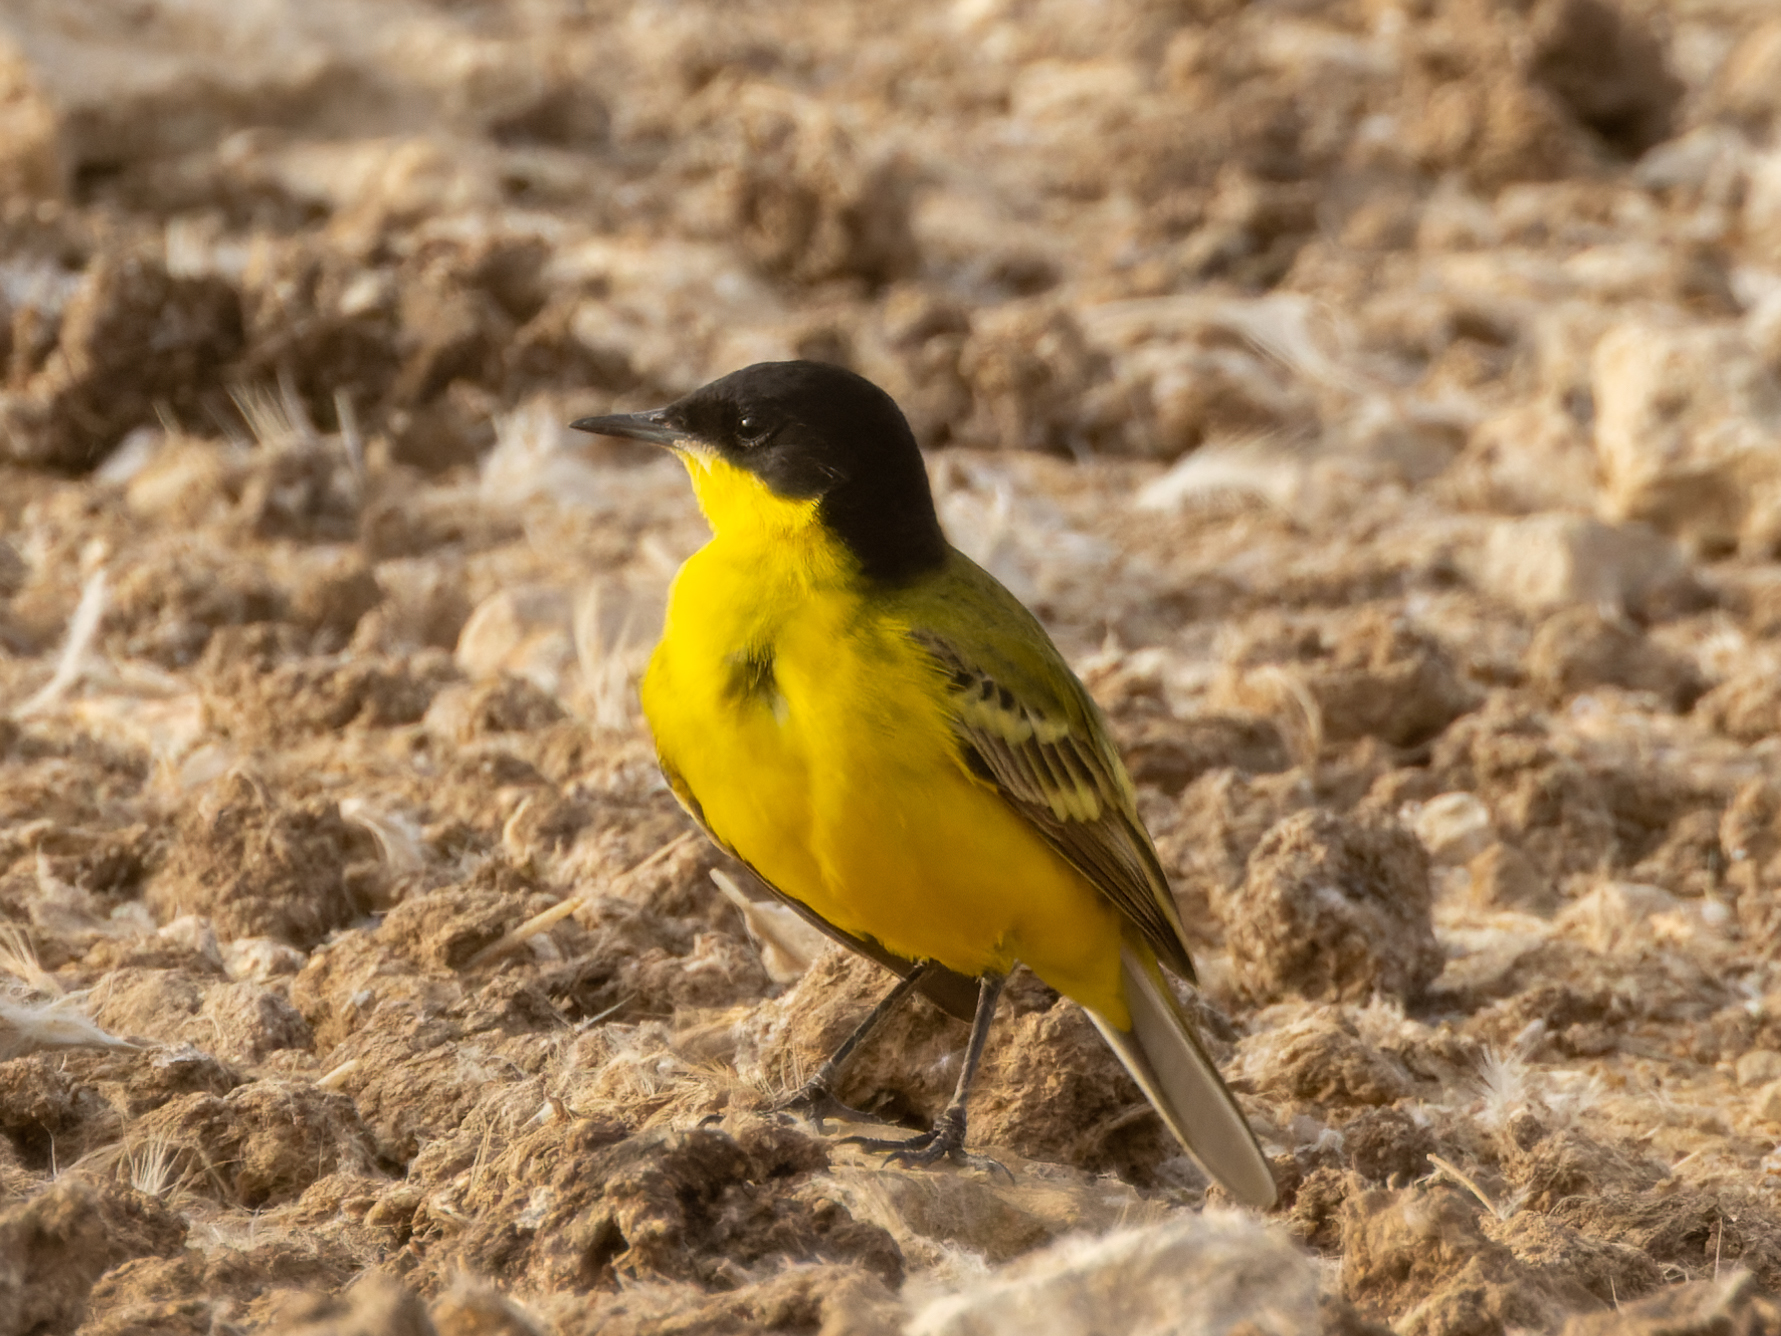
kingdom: Animalia
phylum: Chordata
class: Aves
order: Passeriformes
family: Motacillidae
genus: Motacilla
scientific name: Motacilla flava
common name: Western yellow wagtail
